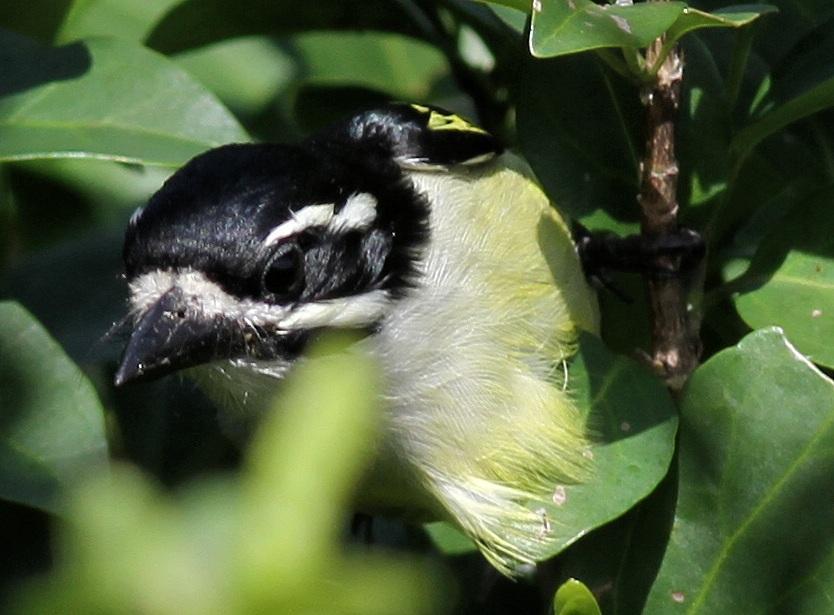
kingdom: Animalia
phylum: Chordata
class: Aves
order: Piciformes
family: Lybiidae
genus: Pogoniulus
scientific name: Pogoniulus bilineatus
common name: Yellow-rumped tinkerbird
